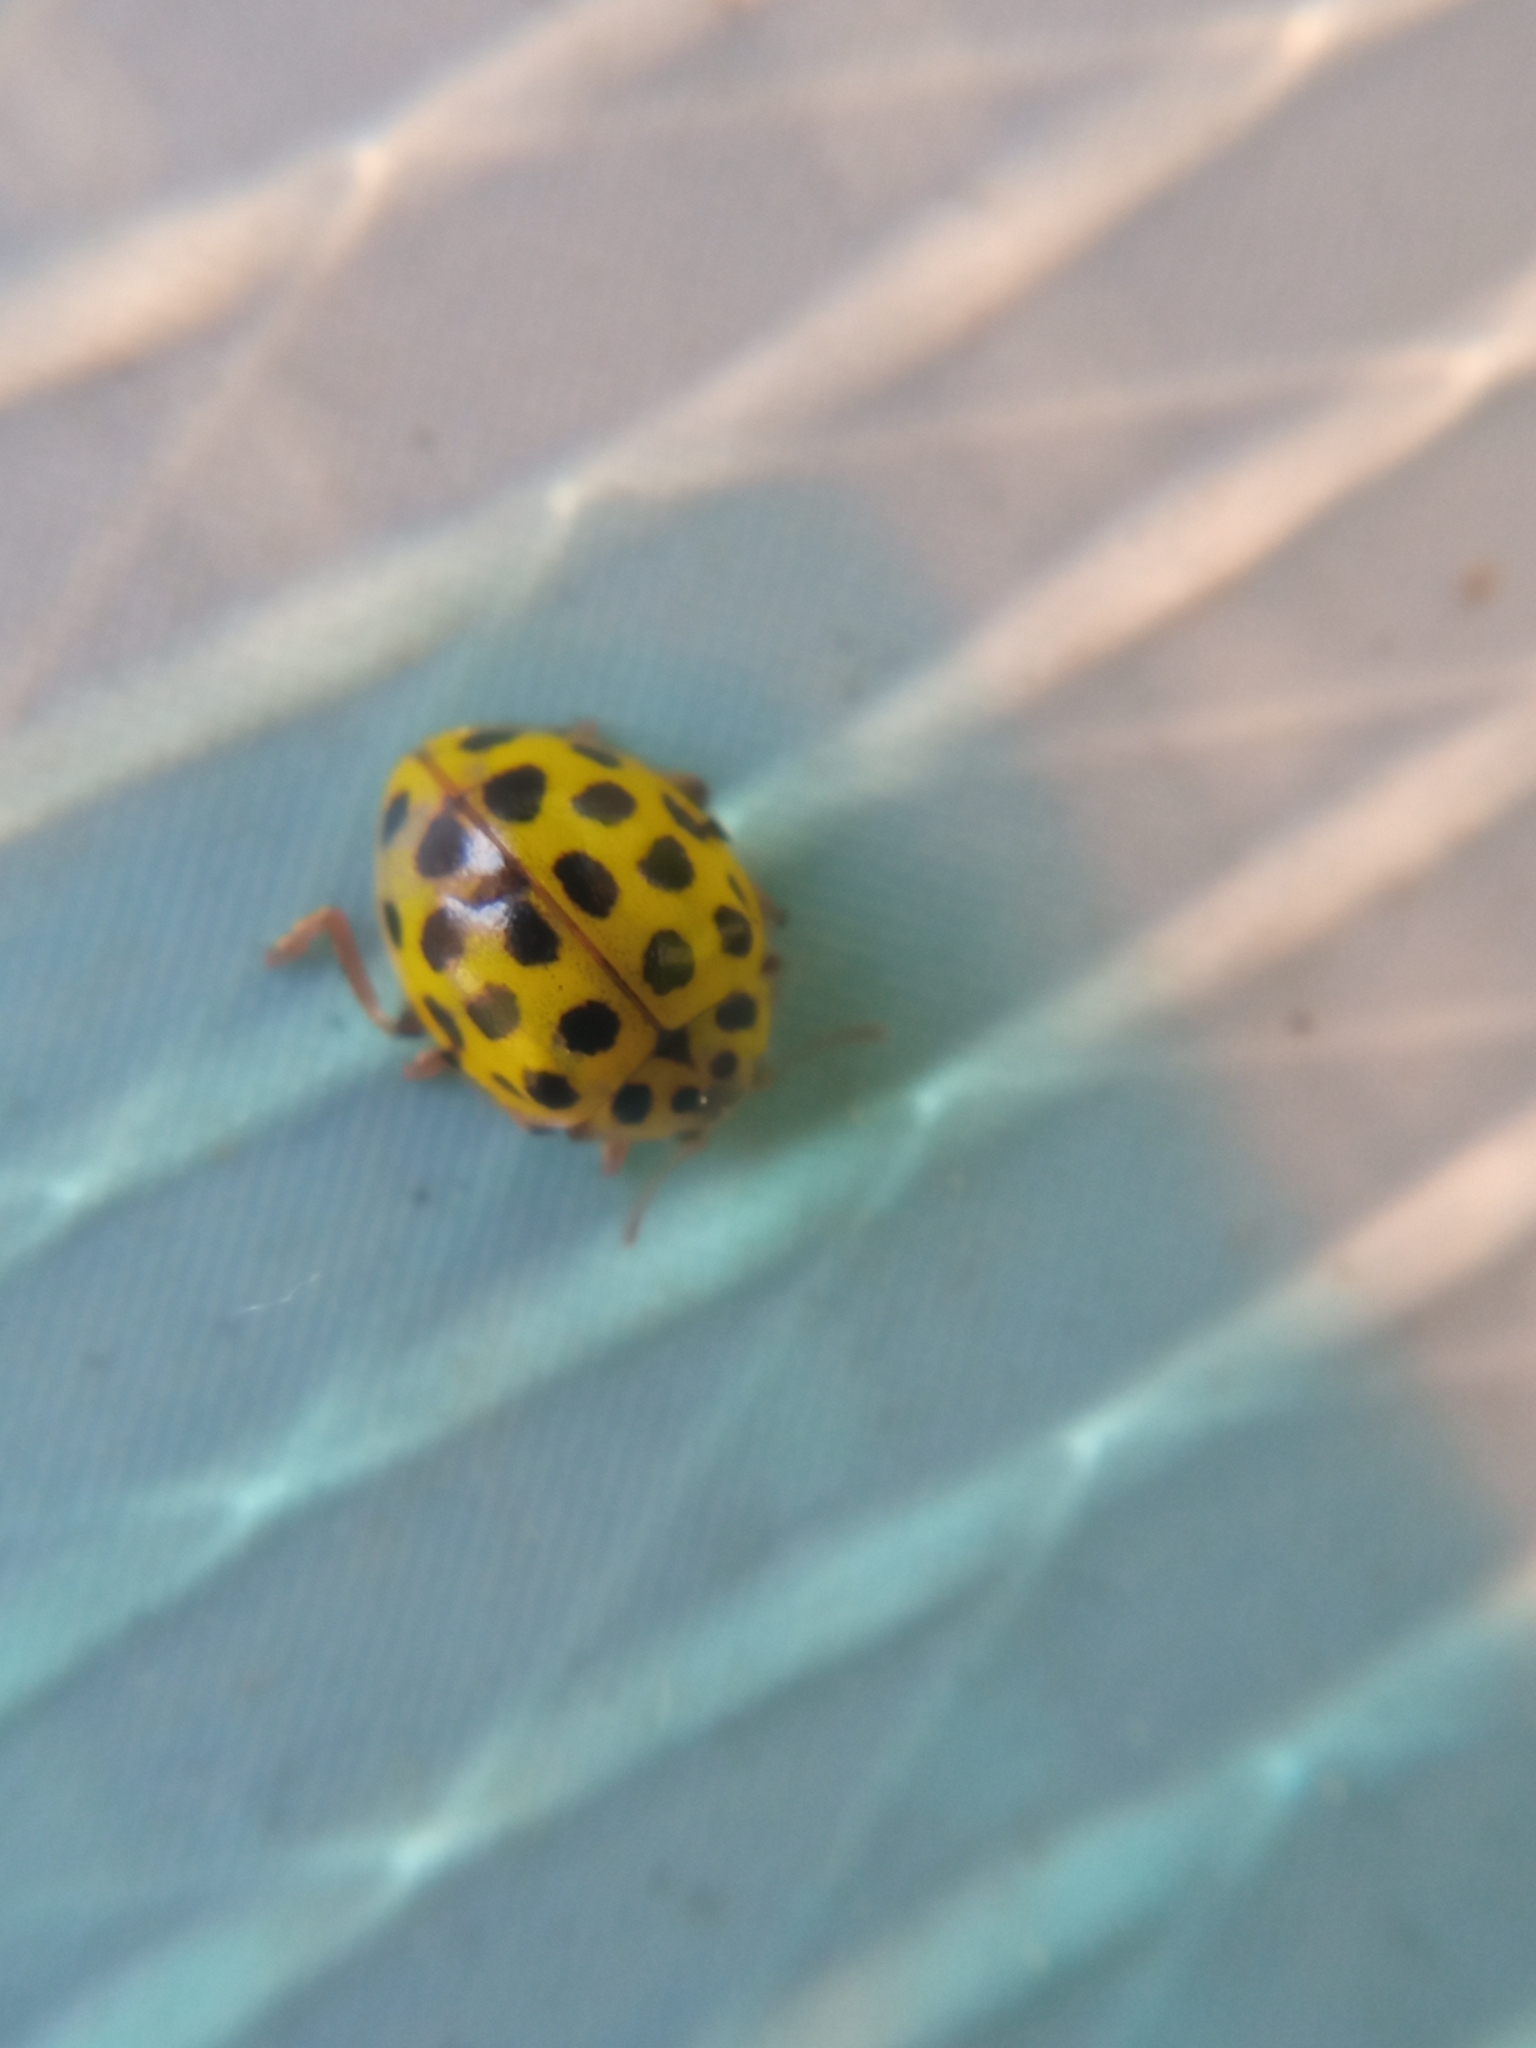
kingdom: Animalia
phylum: Arthropoda
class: Insecta
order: Coleoptera
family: Coccinellidae
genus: Psyllobora
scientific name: Psyllobora vigintiduopunctata
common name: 22-spot ladybird
